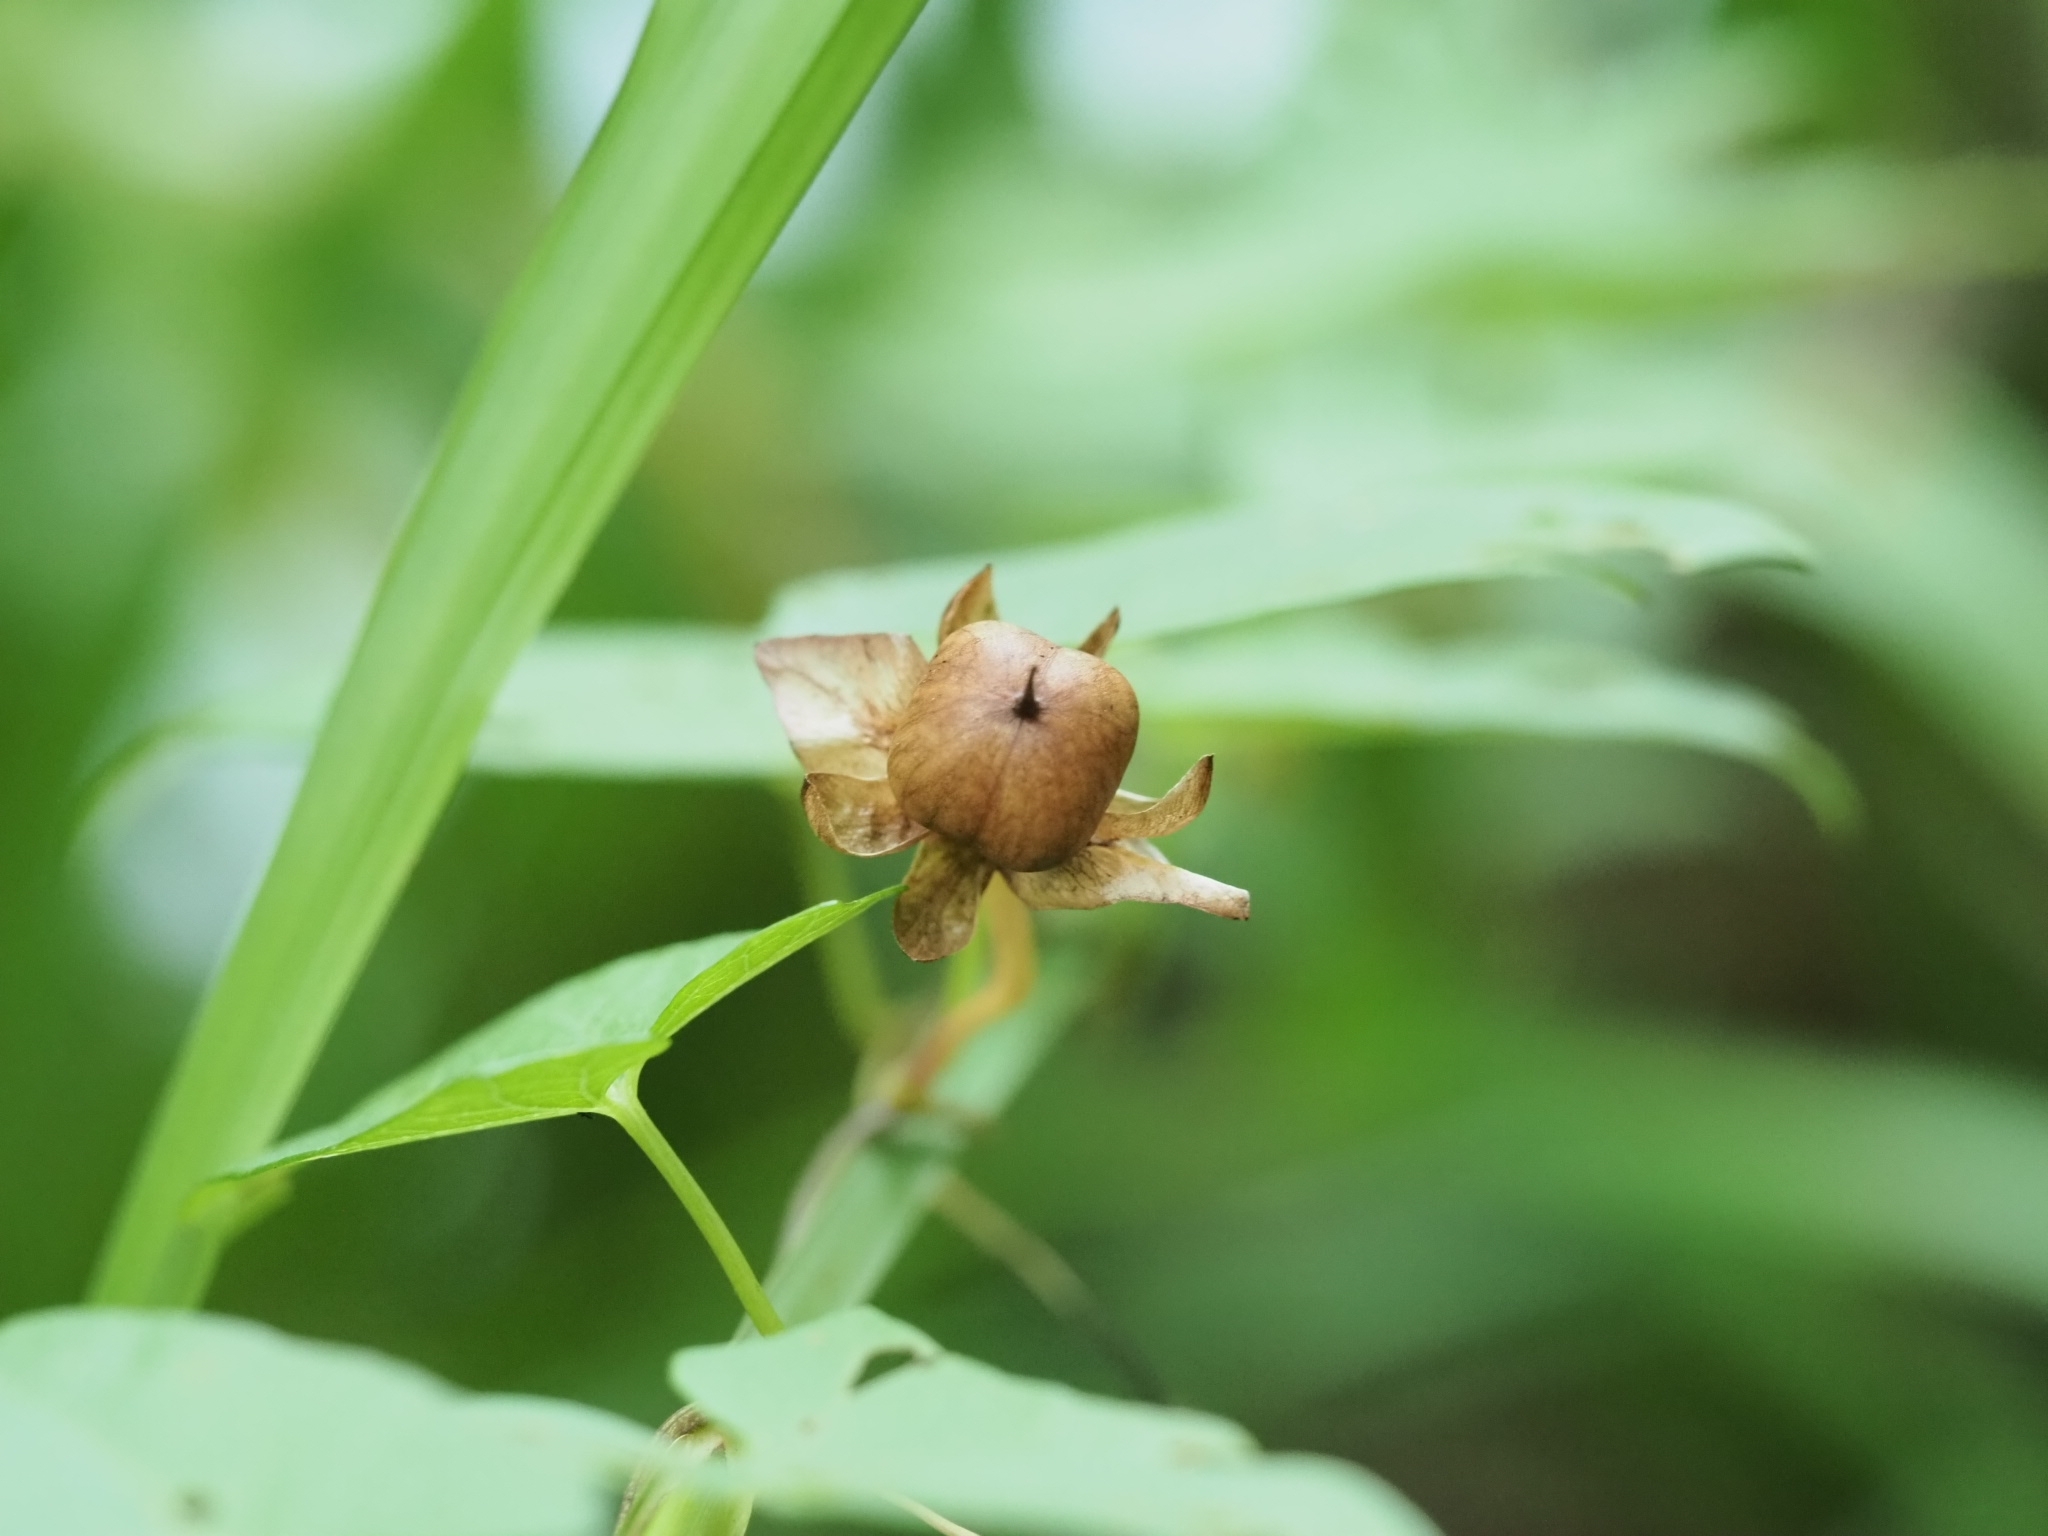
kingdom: Plantae
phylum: Tracheophyta
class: Magnoliopsida
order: Solanales
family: Convolvulaceae
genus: Calystegia
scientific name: Calystegia sepium
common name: Hedge bindweed
